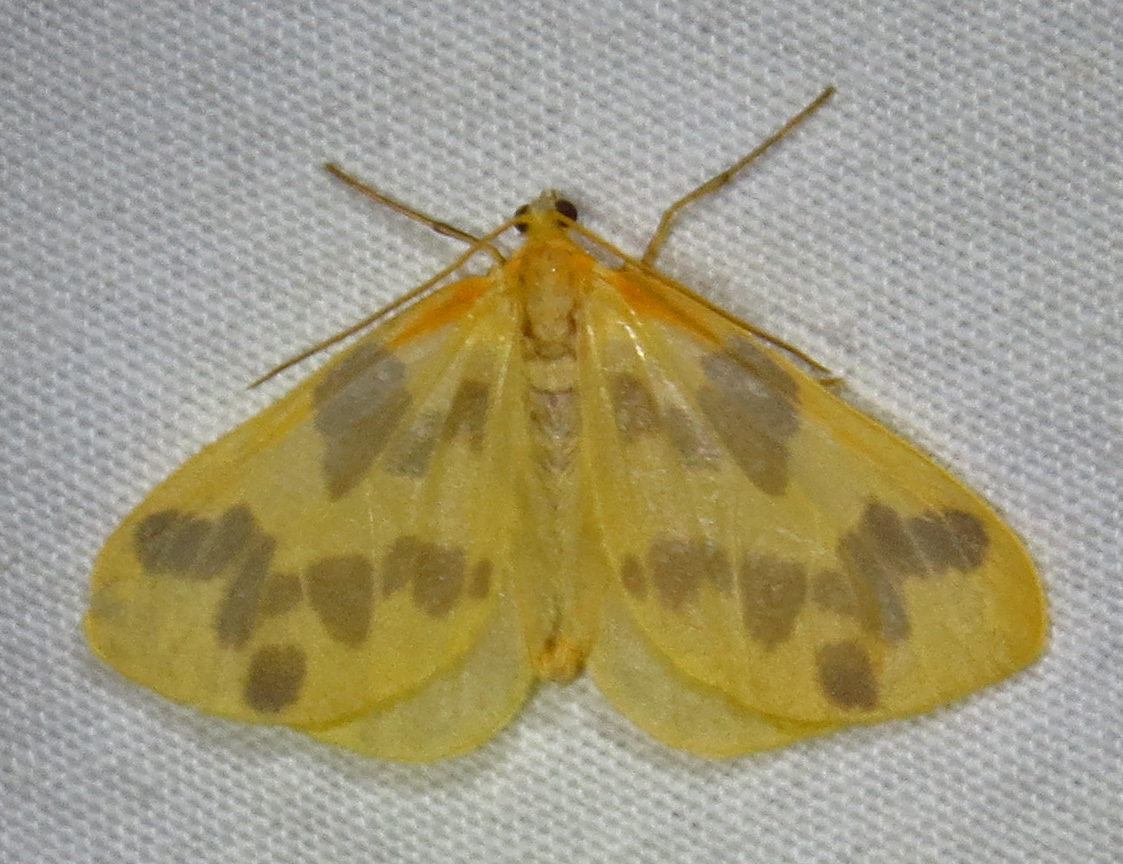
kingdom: Animalia
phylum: Arthropoda
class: Insecta
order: Lepidoptera
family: Geometridae
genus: Eubaphe
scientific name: Eubaphe mendica
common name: Beggar
